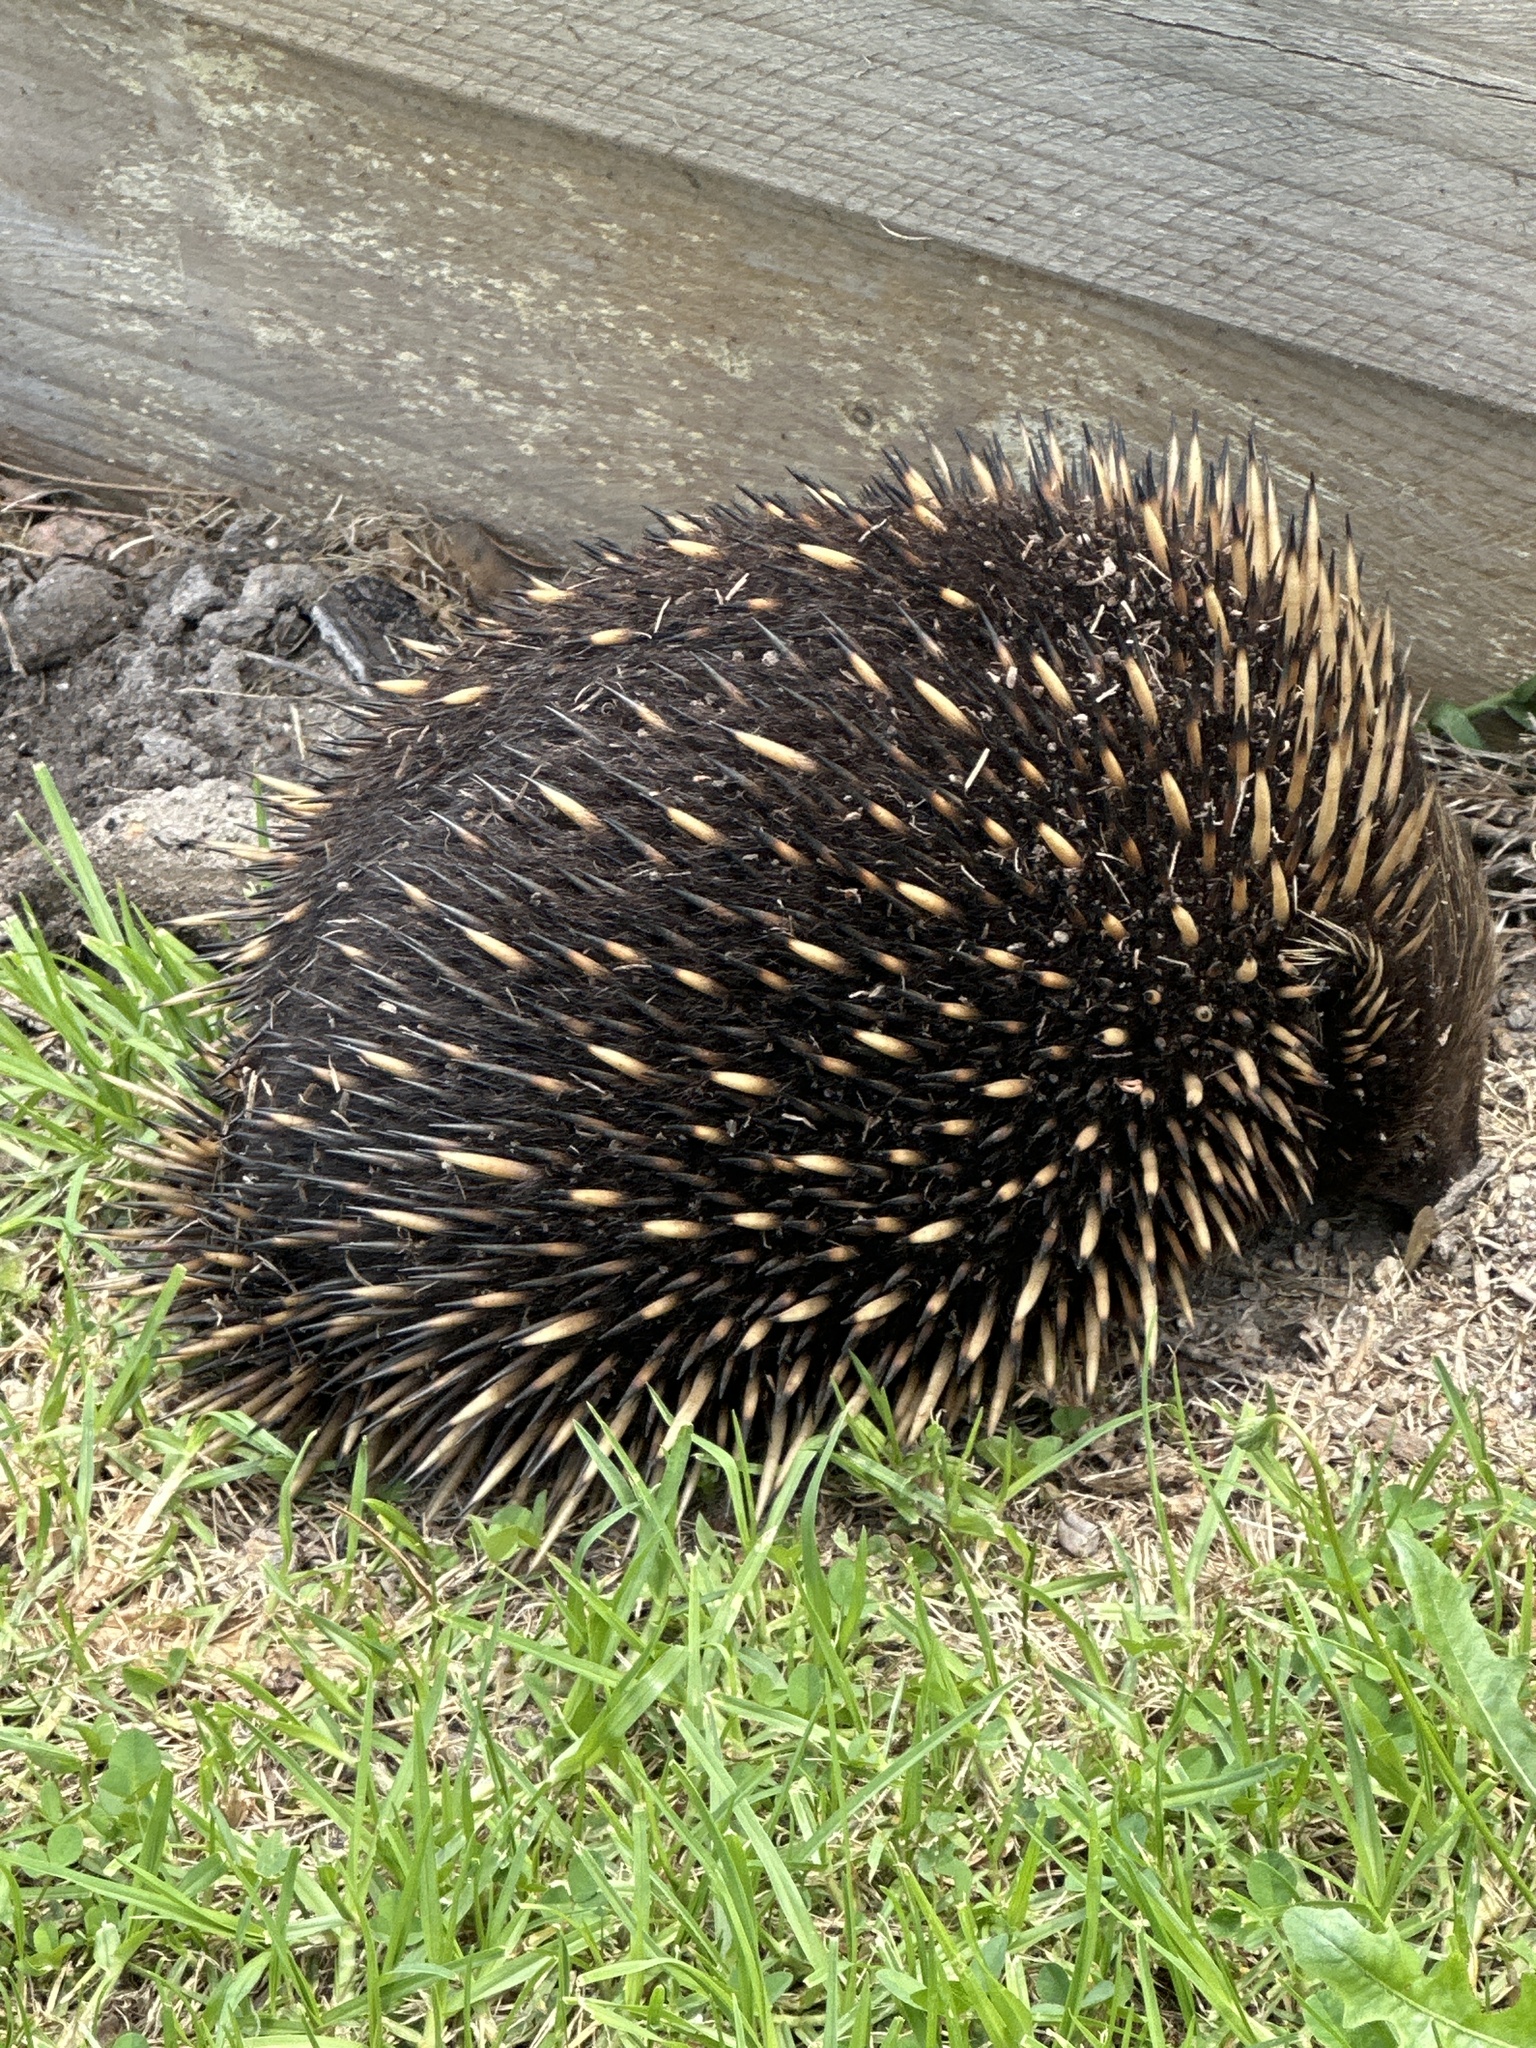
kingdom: Animalia
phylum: Chordata
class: Mammalia
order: Monotremata
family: Tachyglossidae
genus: Tachyglossus
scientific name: Tachyglossus aculeatus
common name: Short-beaked echidna
